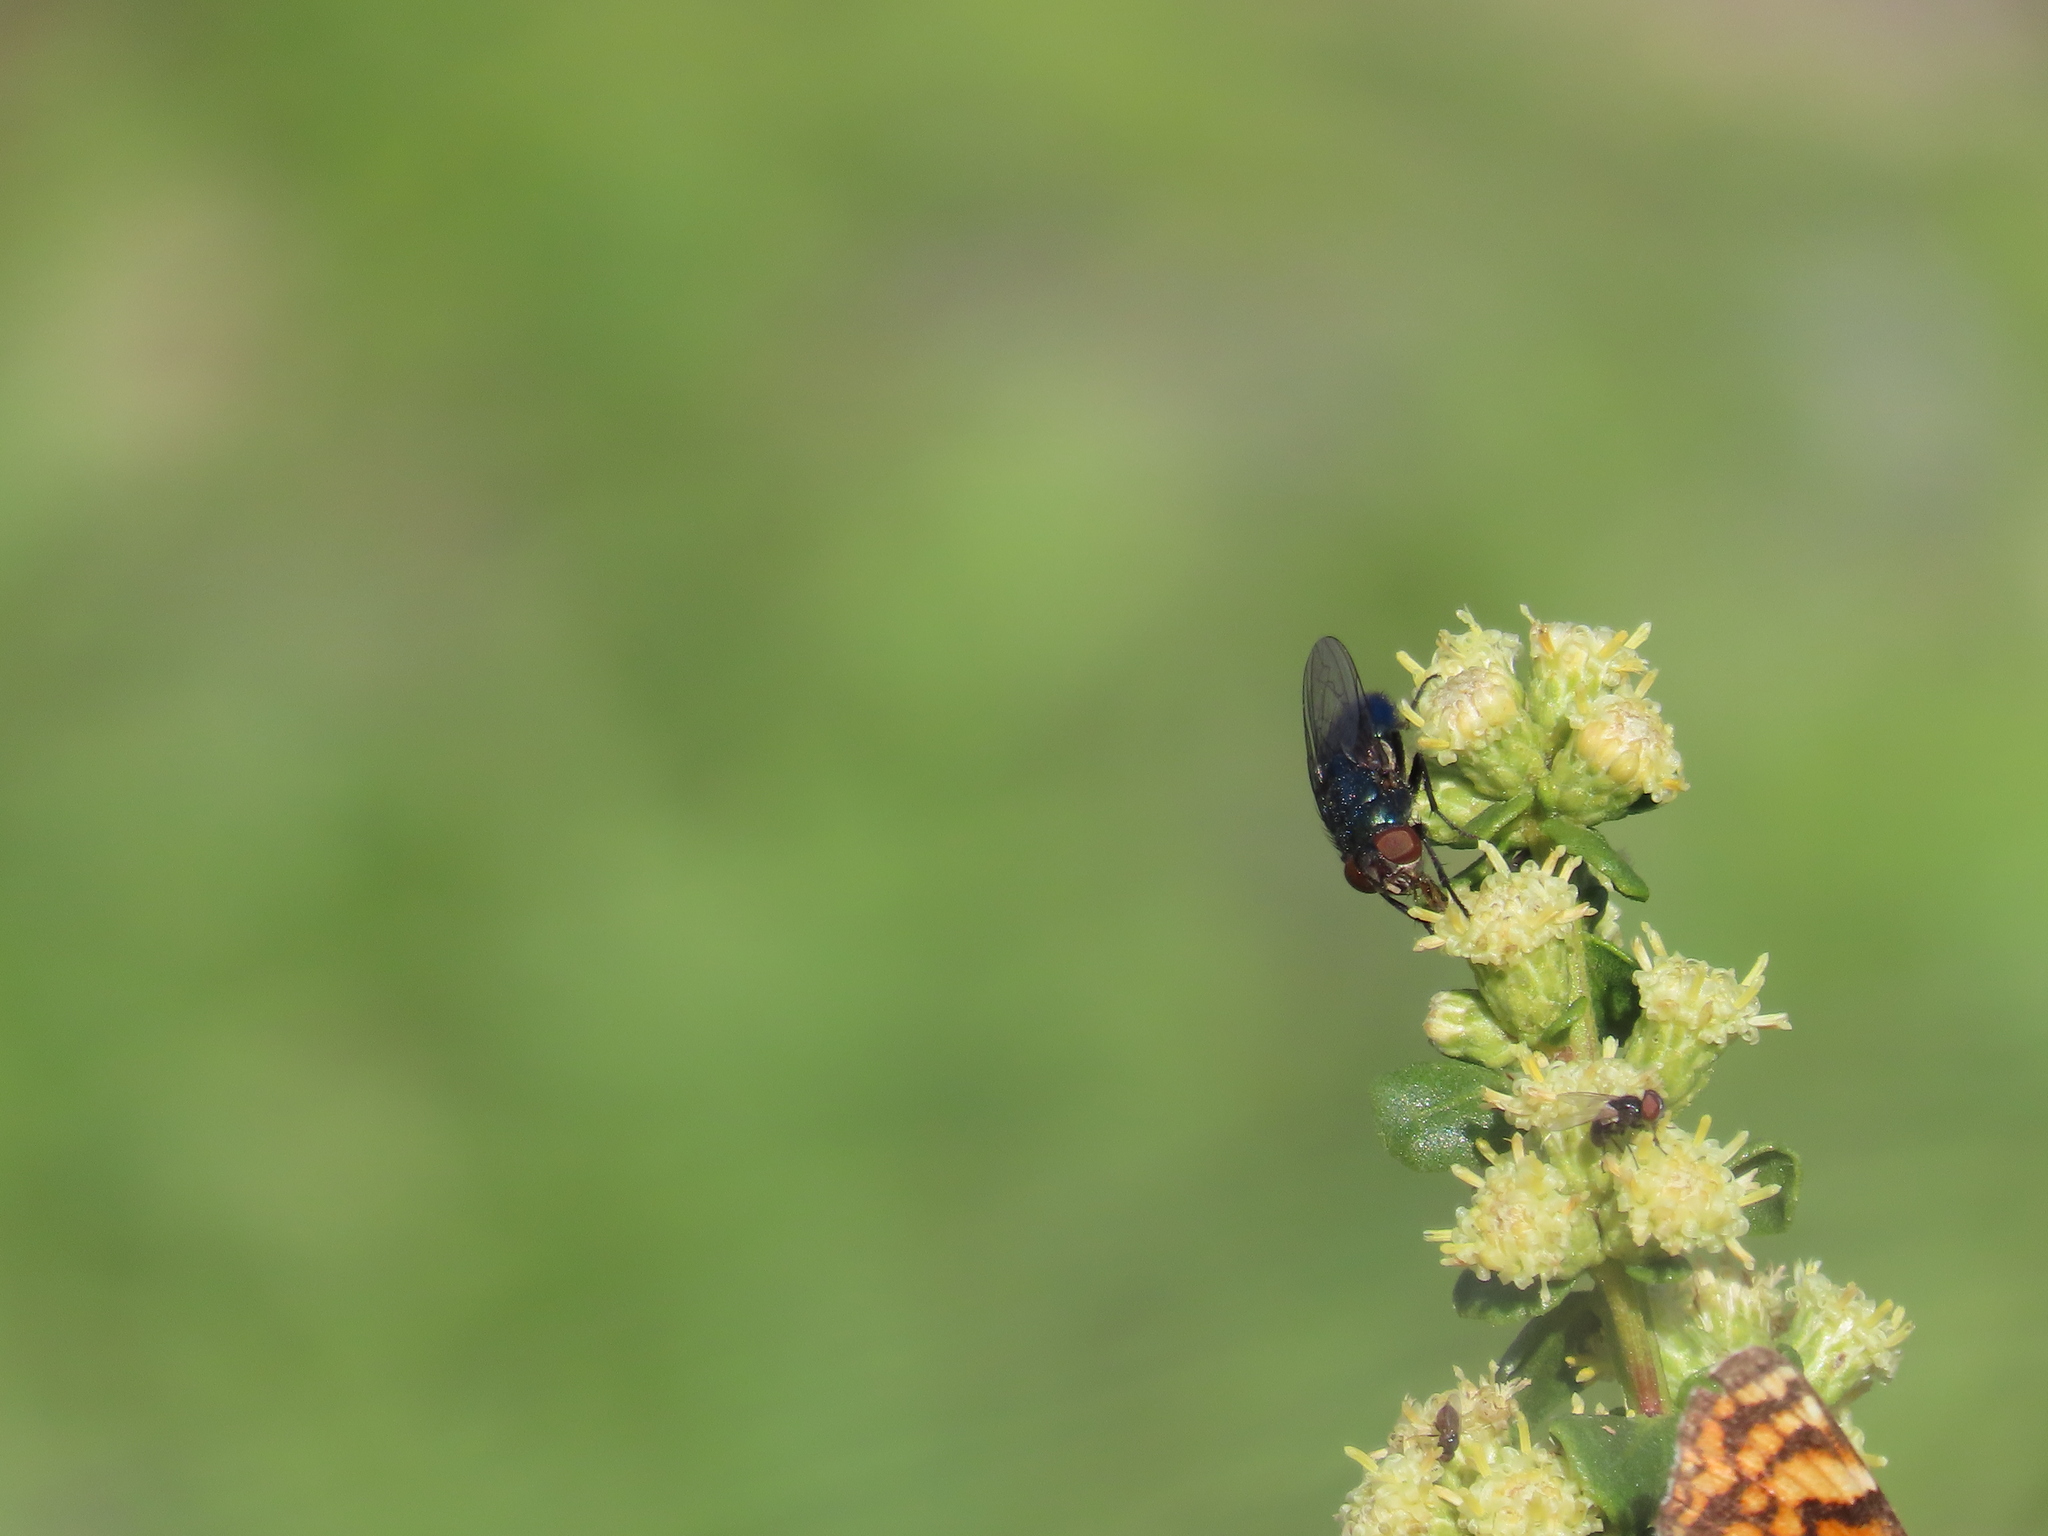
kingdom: Plantae
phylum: Tracheophyta
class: Magnoliopsida
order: Asterales
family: Asteraceae
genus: Baccharis
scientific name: Baccharis pilularis
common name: Coyotebrush
